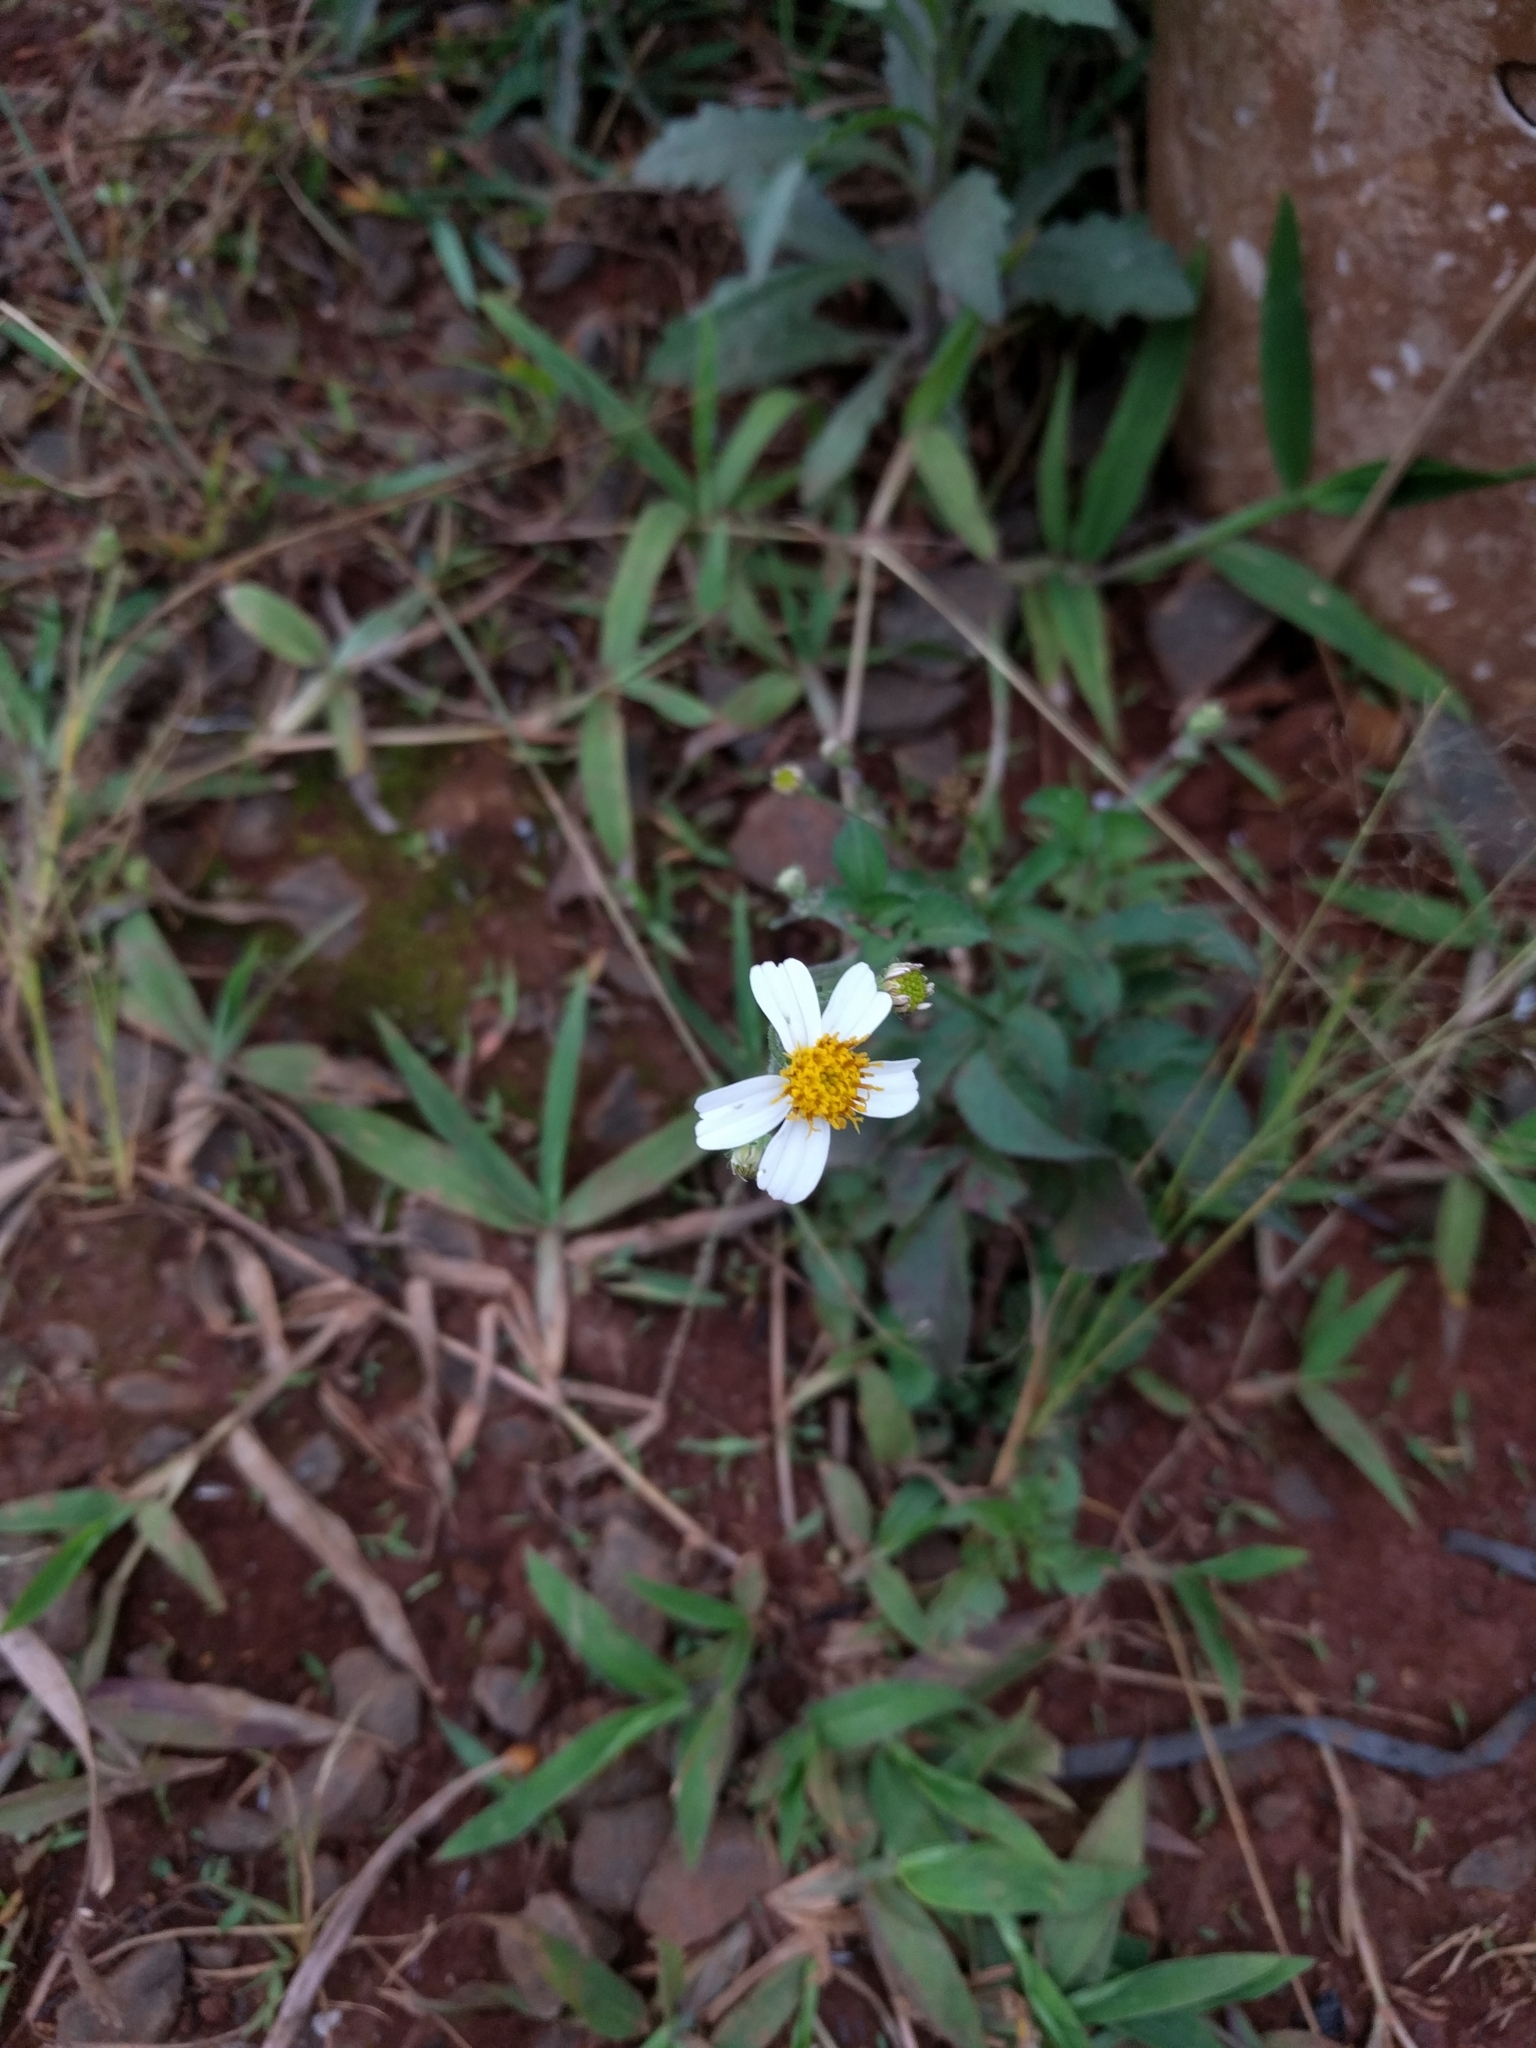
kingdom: Plantae
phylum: Tracheophyta
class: Magnoliopsida
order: Asterales
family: Asteraceae
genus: Bidens
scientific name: Bidens pilosa
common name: Black-jack
